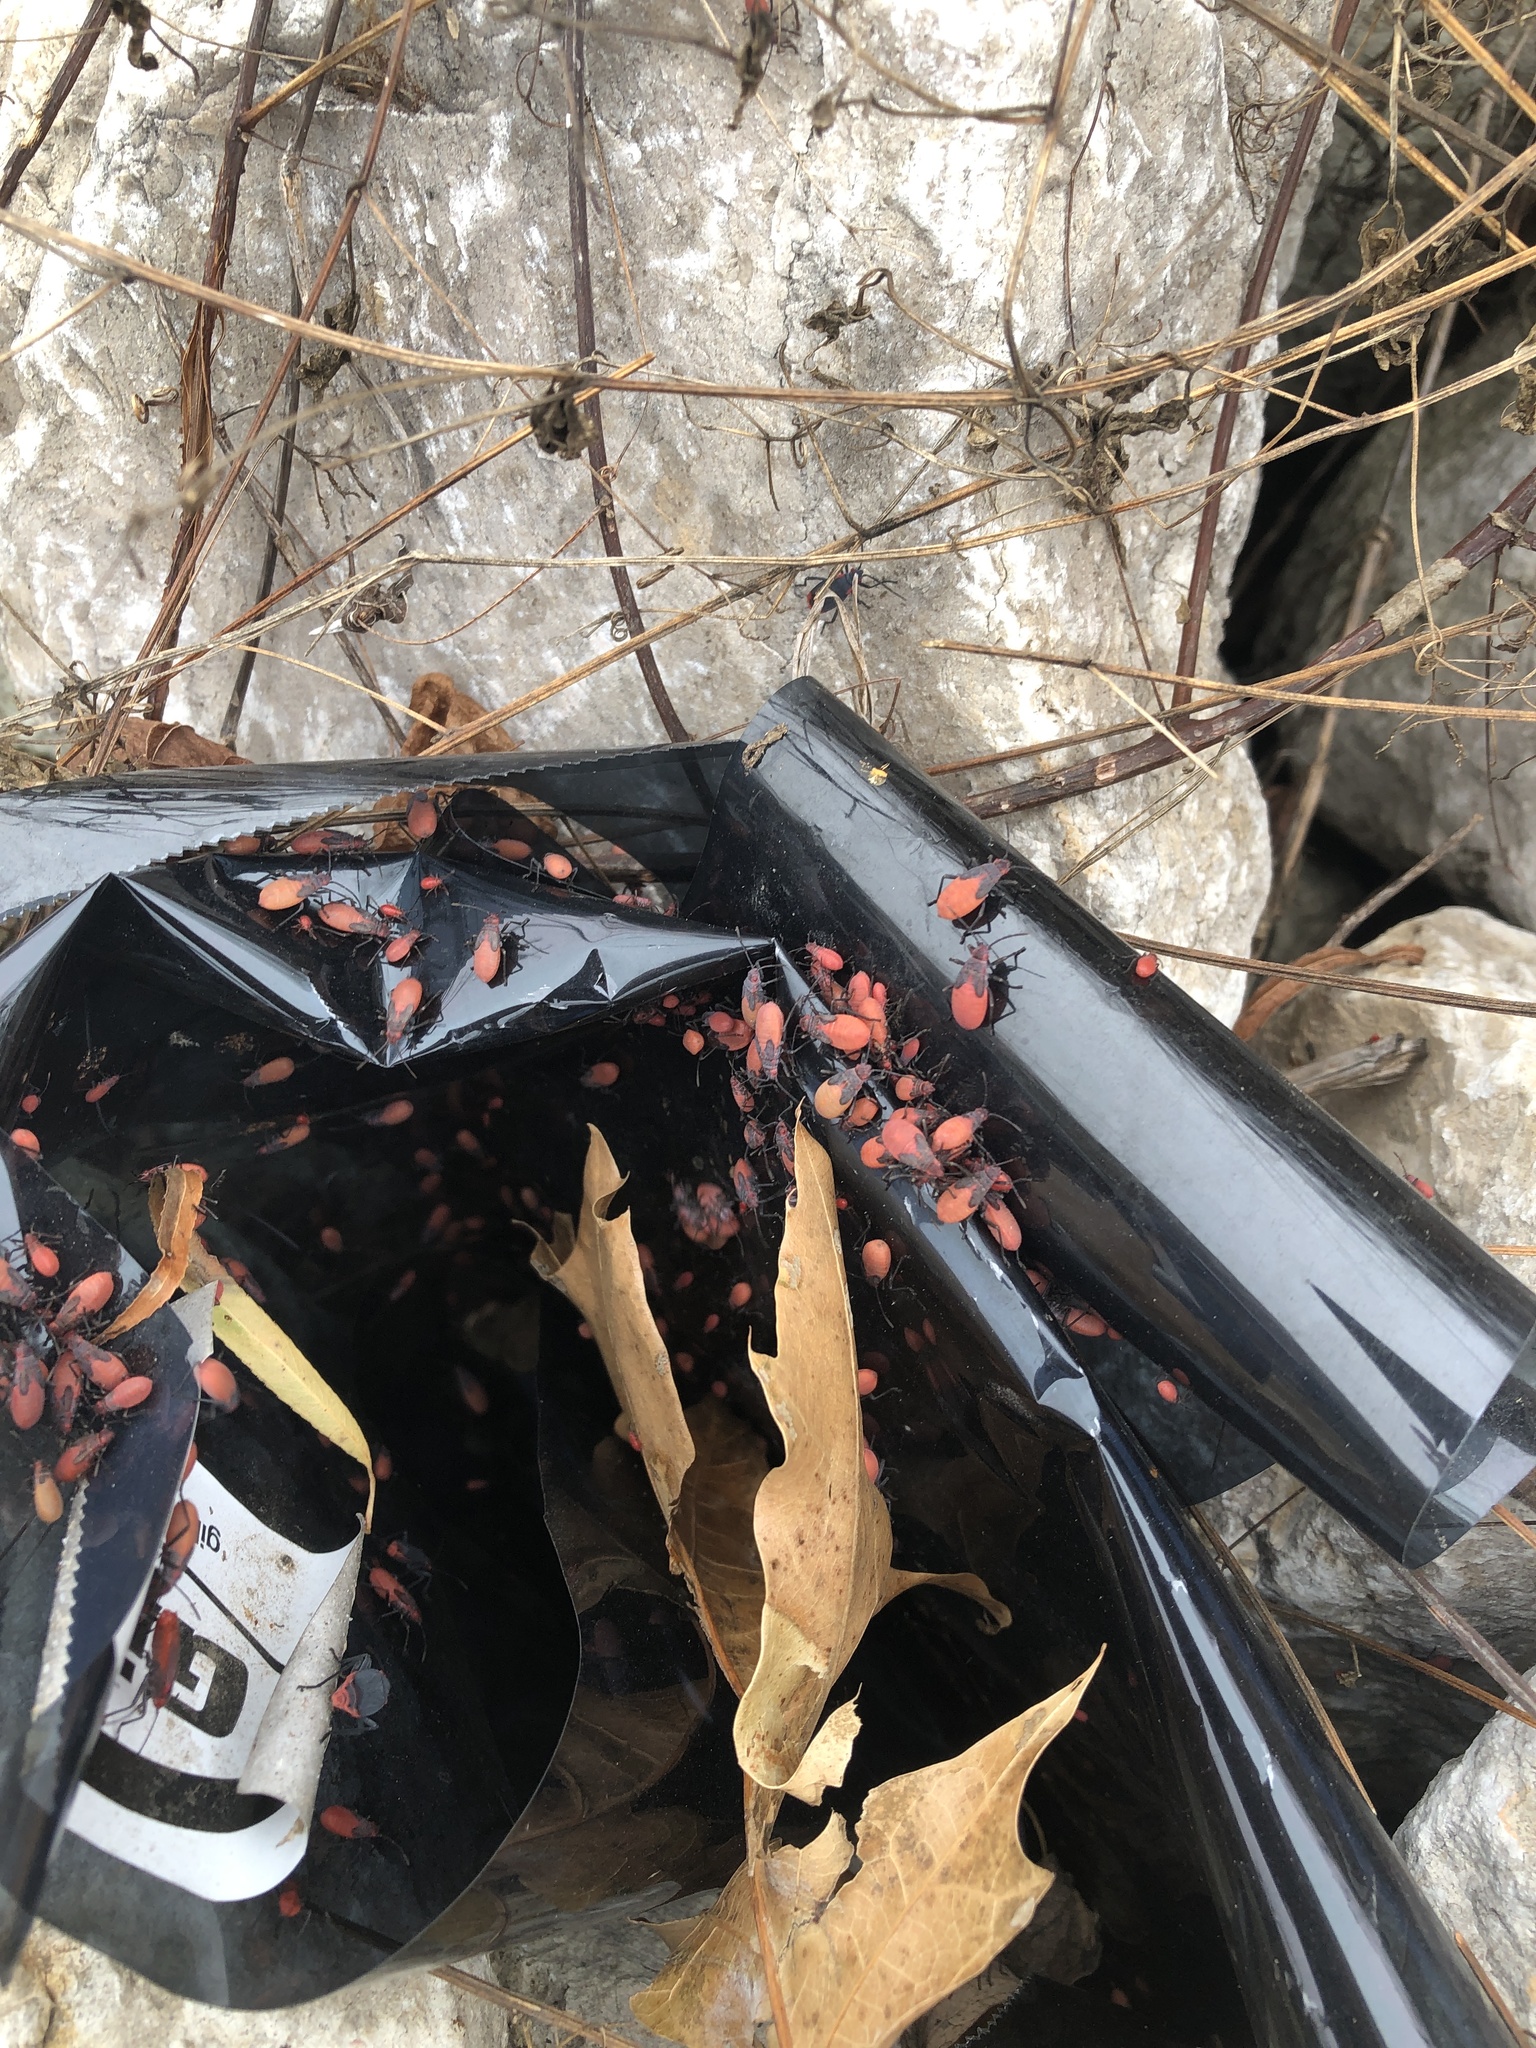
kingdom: Animalia
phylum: Arthropoda
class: Insecta
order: Hemiptera
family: Rhopalidae
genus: Jadera
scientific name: Jadera haematoloma
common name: Red-shouldered bug
